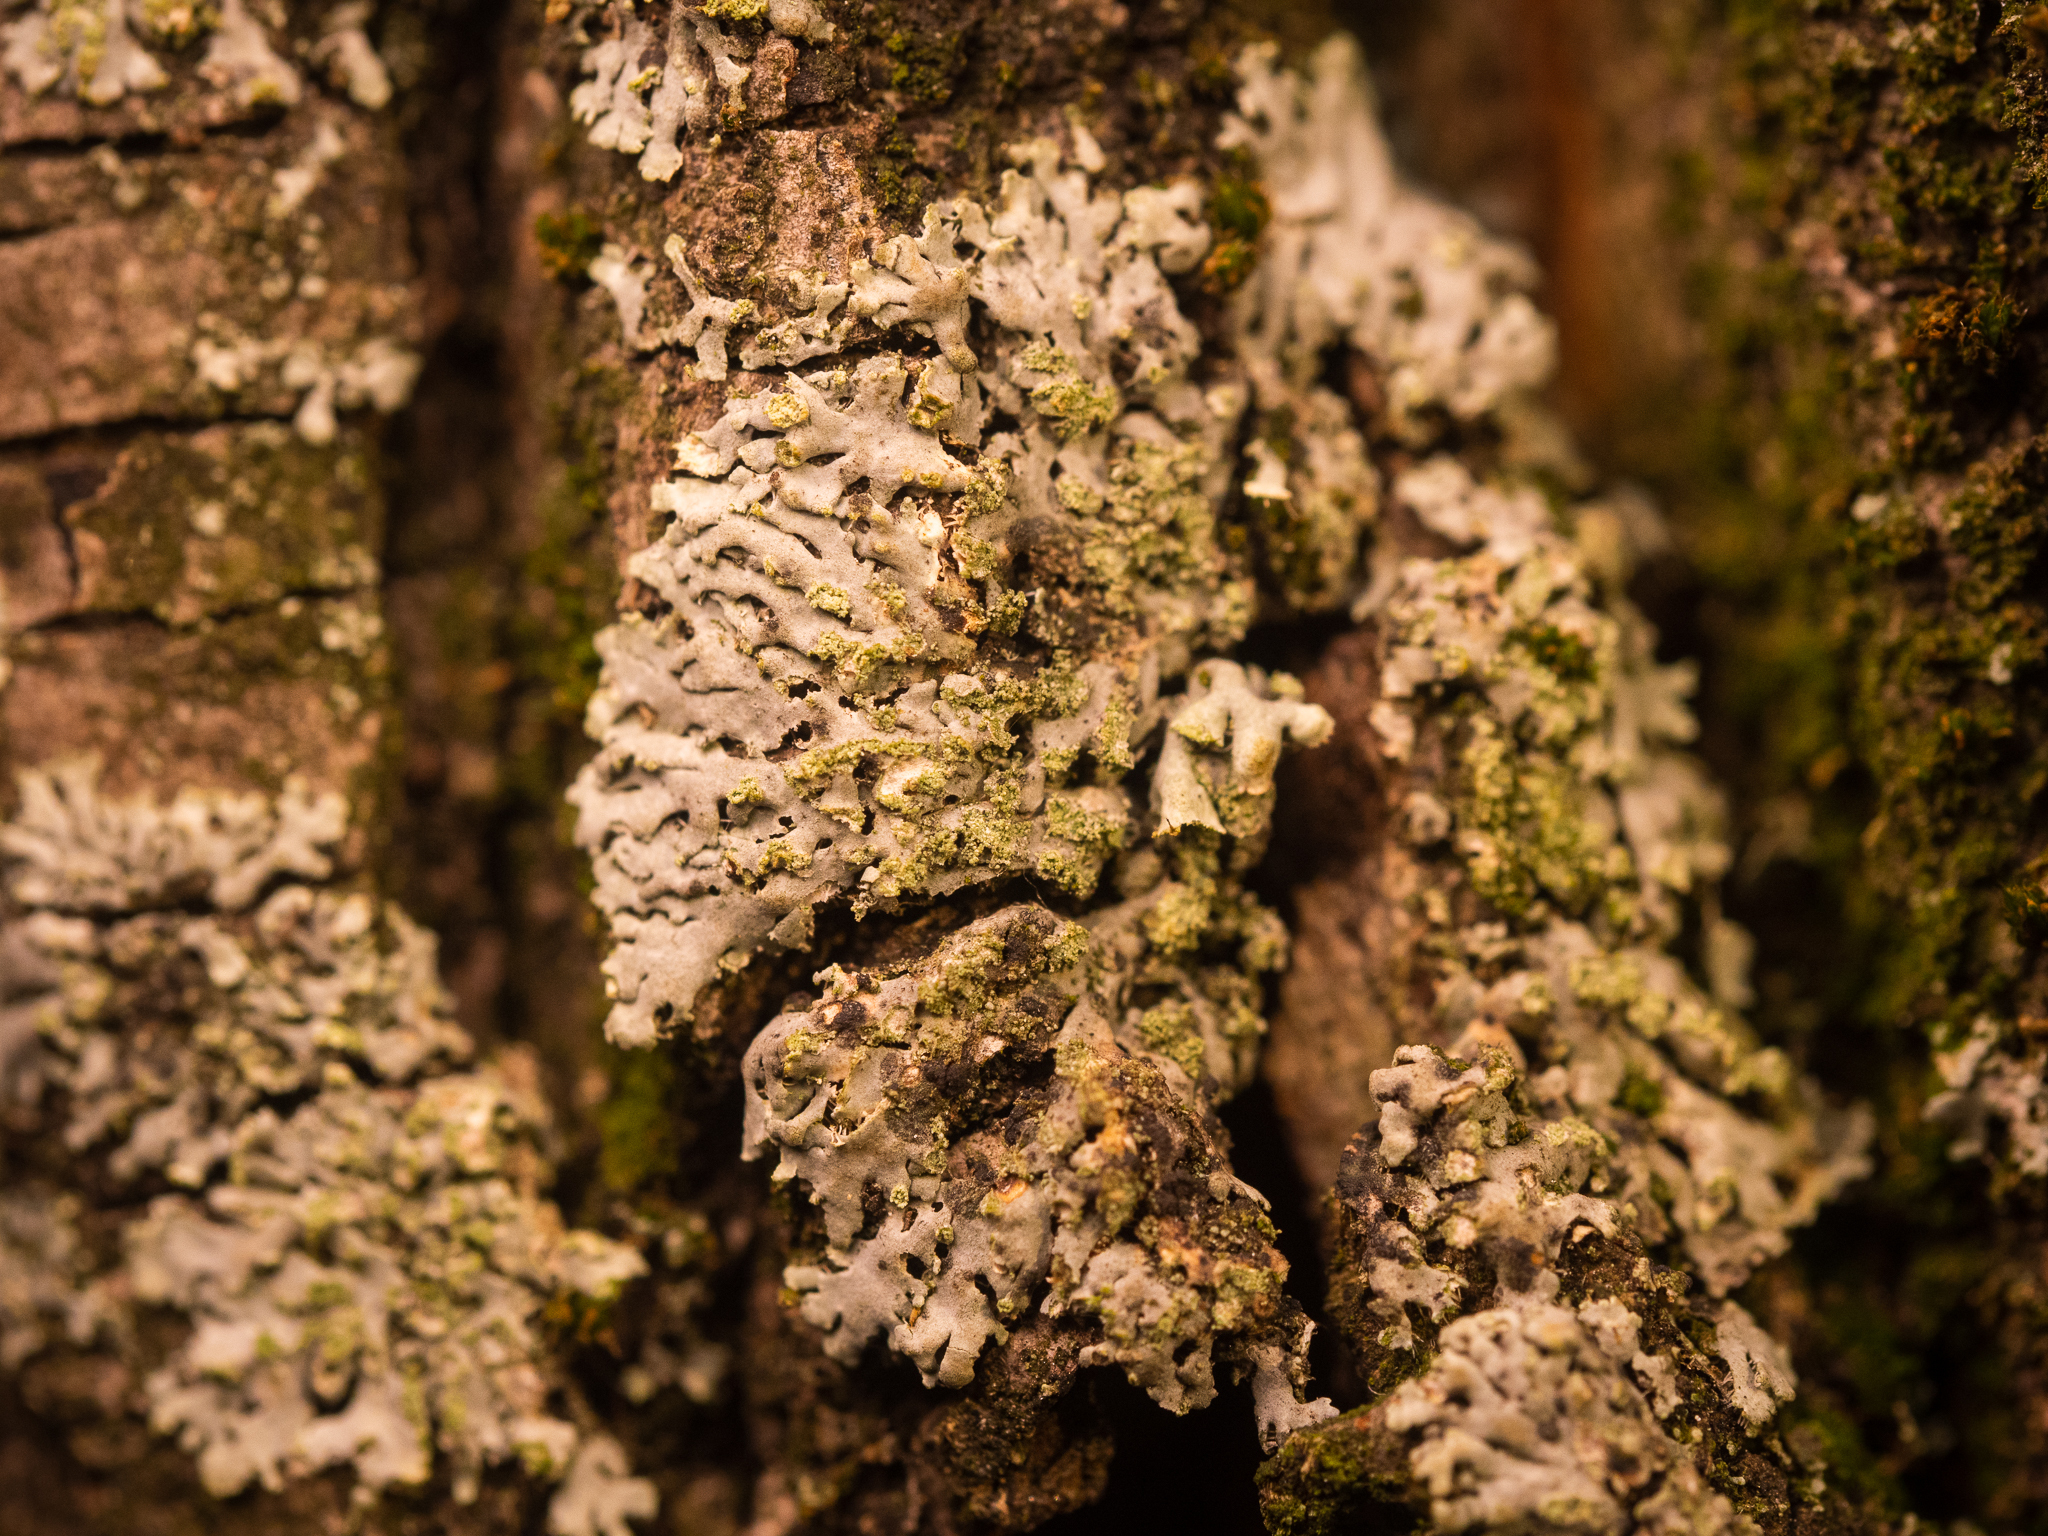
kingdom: Fungi
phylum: Ascomycota
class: Lecanoromycetes
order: Caliciales
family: Physciaceae
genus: Phaeophyscia
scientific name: Phaeophyscia orbicularis
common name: Mealy shadow lichen
